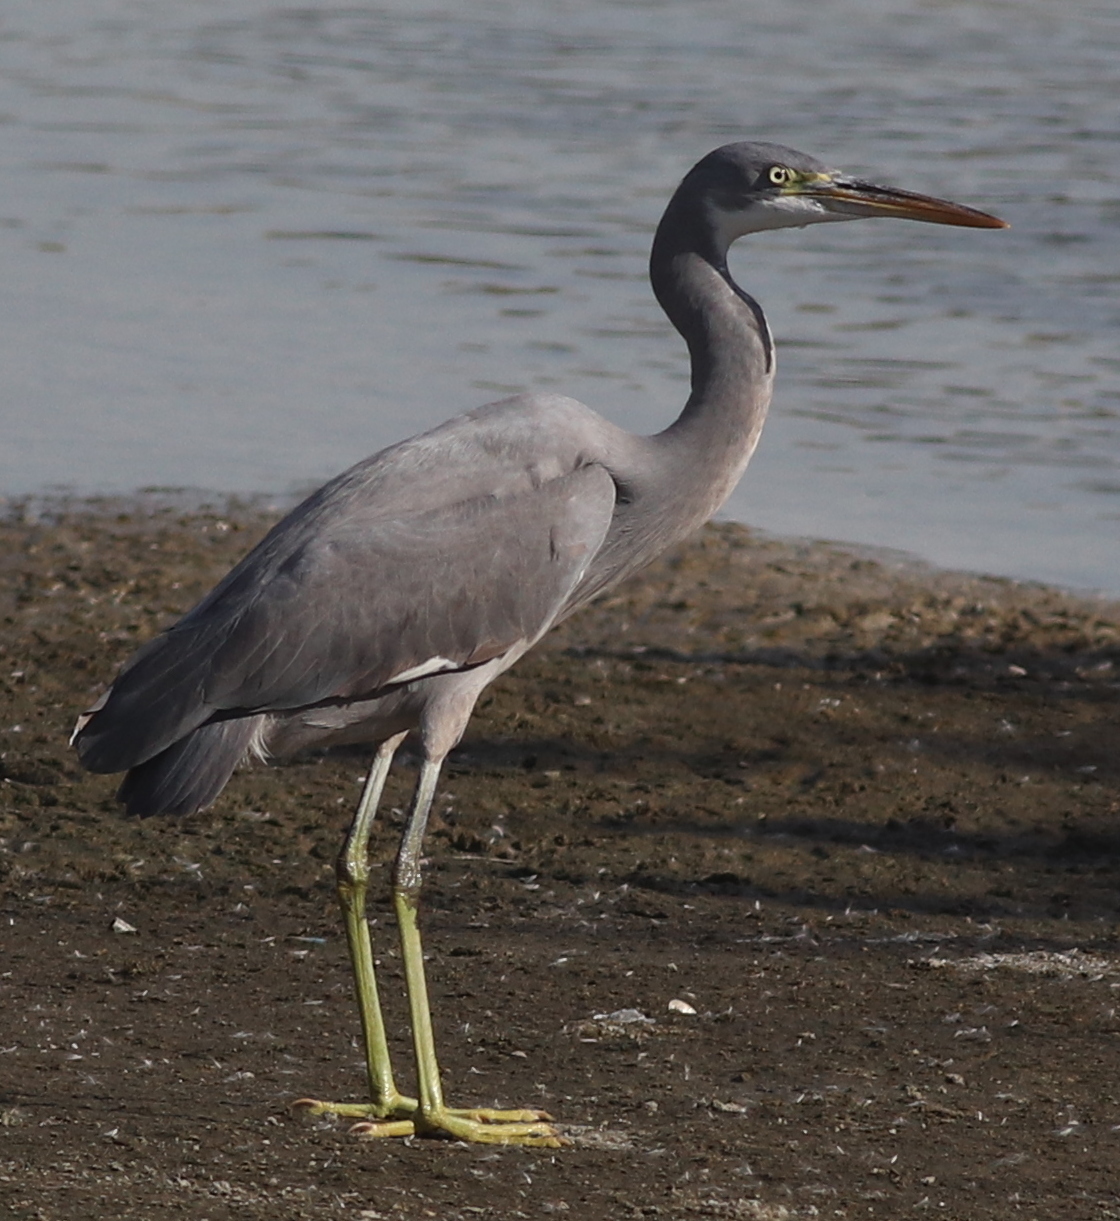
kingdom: Animalia
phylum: Chordata
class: Aves
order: Pelecaniformes
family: Ardeidae
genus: Egretta
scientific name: Egretta gularis
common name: Western reef-heron
